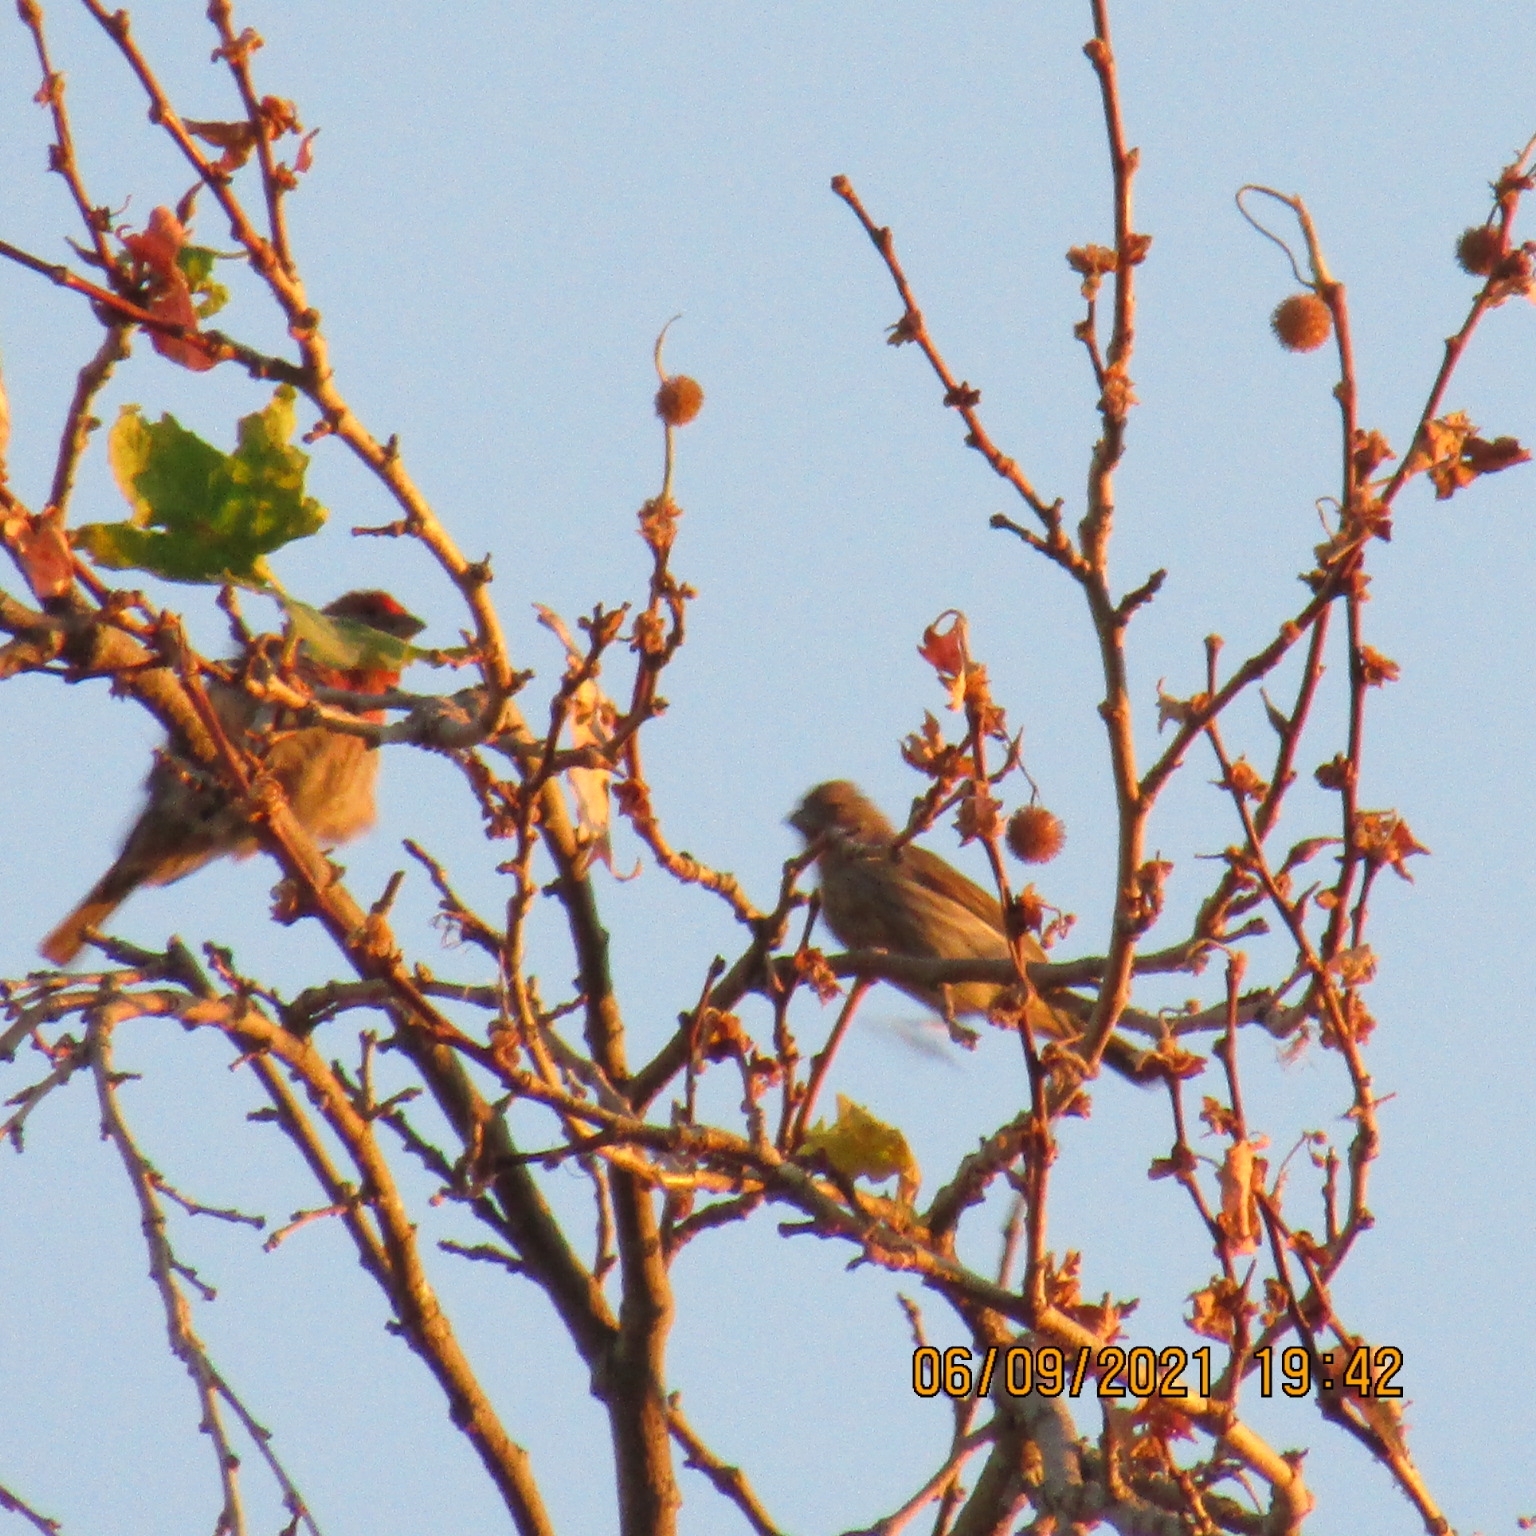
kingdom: Animalia
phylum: Chordata
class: Aves
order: Passeriformes
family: Fringillidae
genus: Haemorhous
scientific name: Haemorhous mexicanus
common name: House finch
